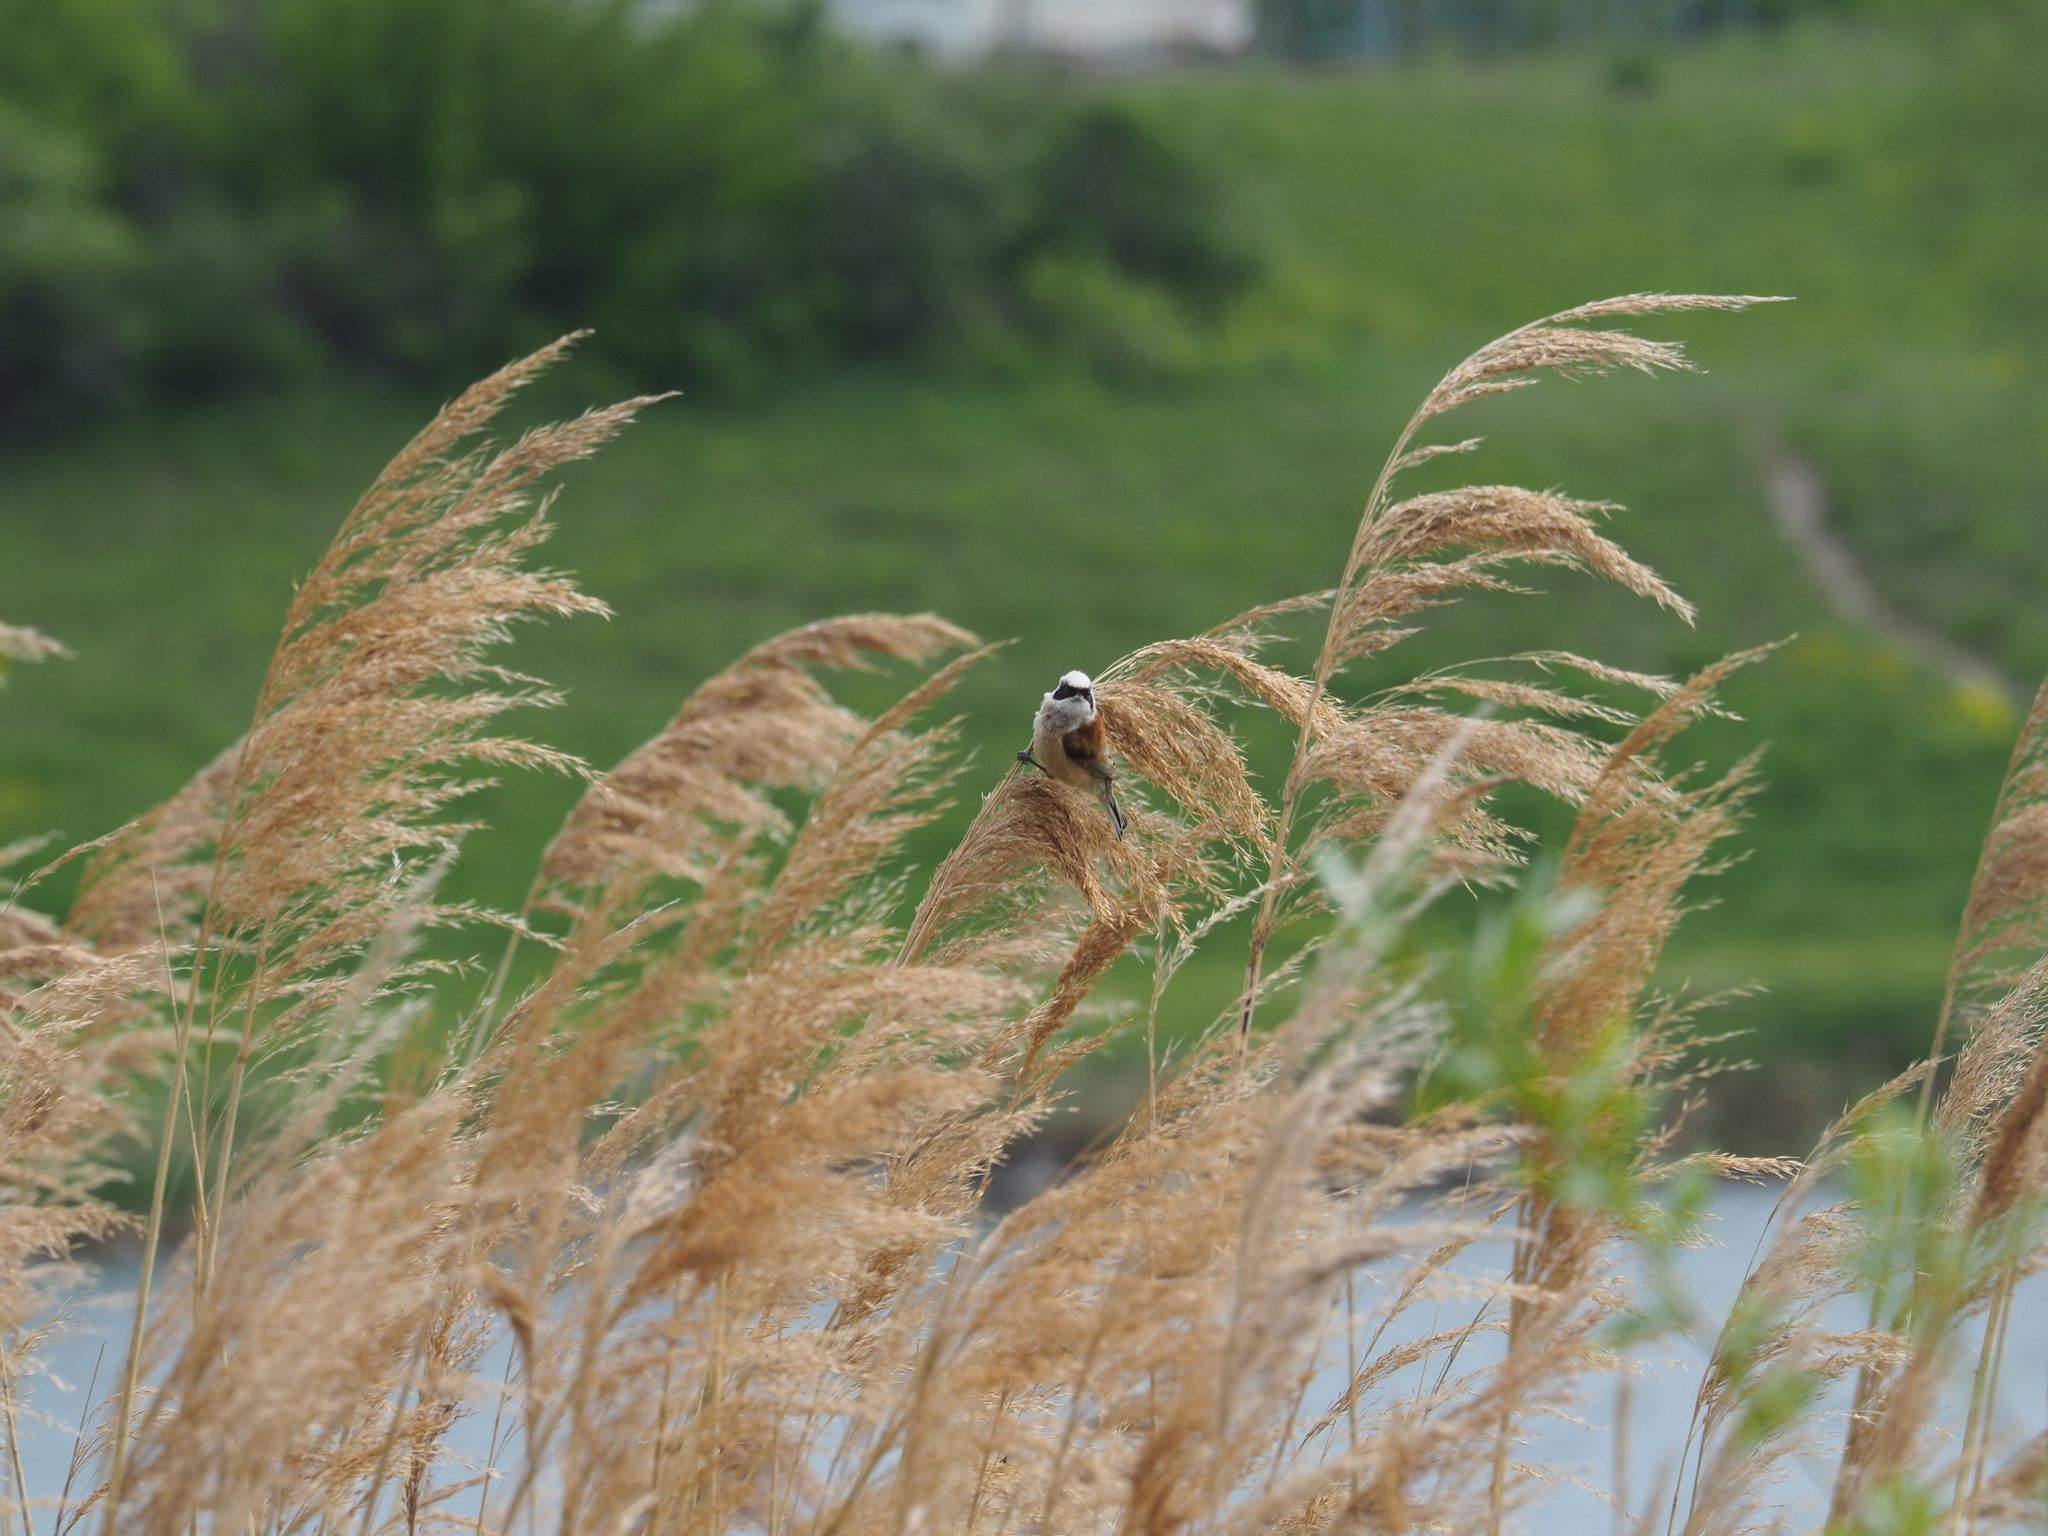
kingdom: Animalia
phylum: Chordata
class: Aves
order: Passeriformes
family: Remizidae
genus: Remiz
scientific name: Remiz pendulinus
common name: Eurasian penduline tit
